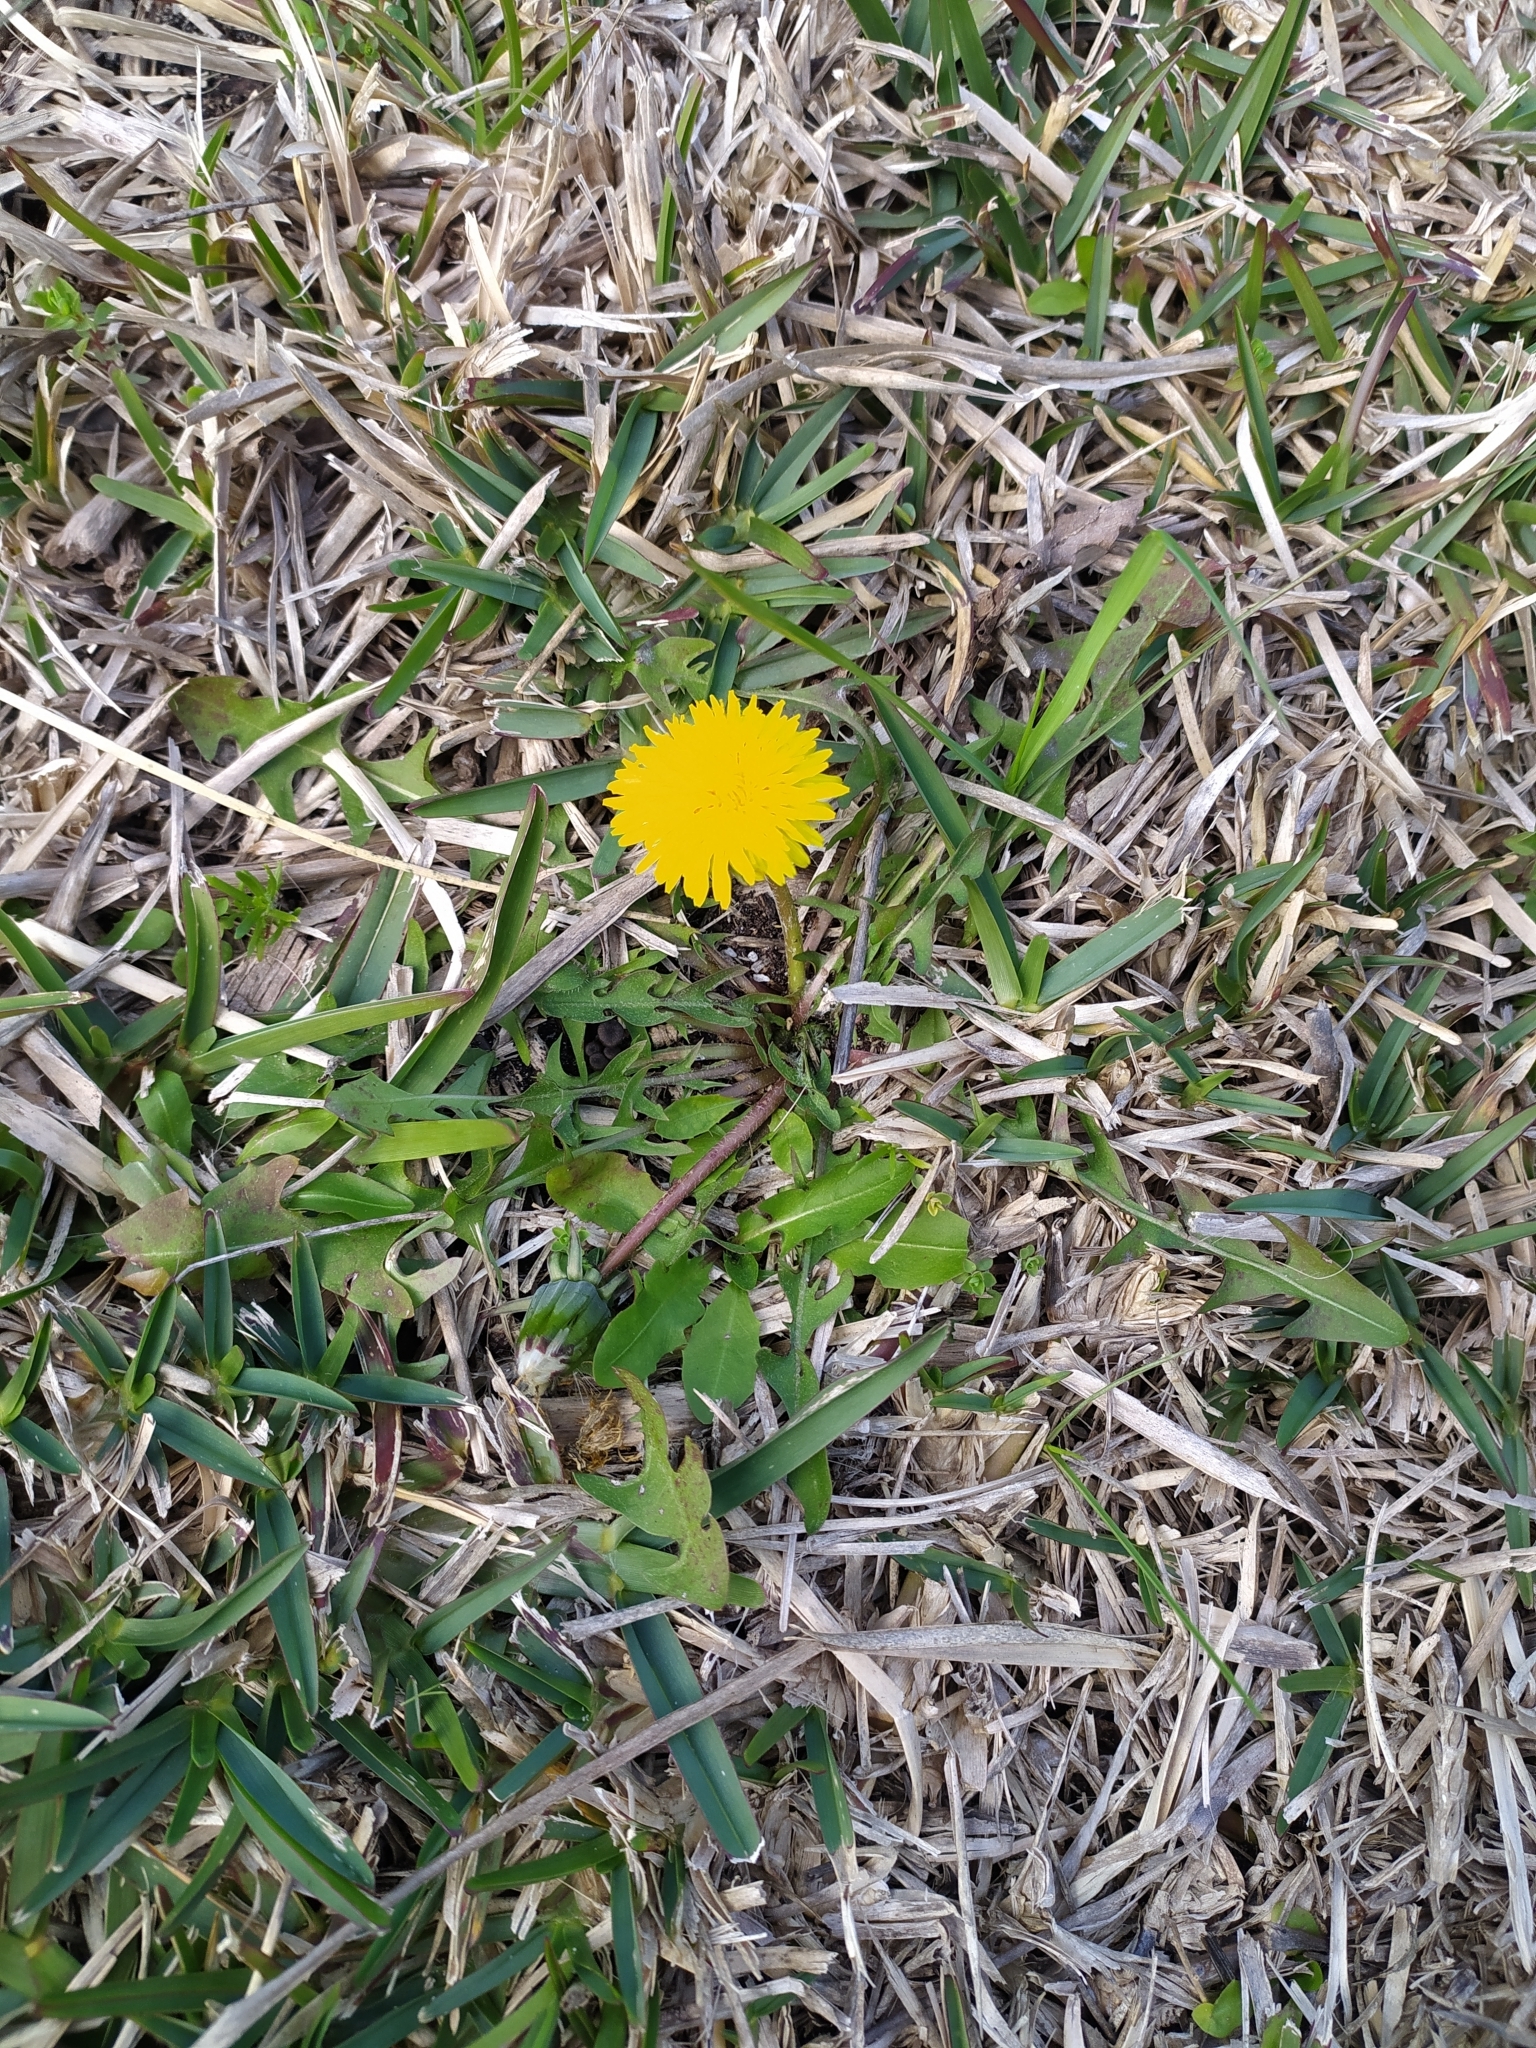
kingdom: Plantae
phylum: Tracheophyta
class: Magnoliopsida
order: Asterales
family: Asteraceae
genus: Taraxacum
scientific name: Taraxacum officinale
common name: Common dandelion
